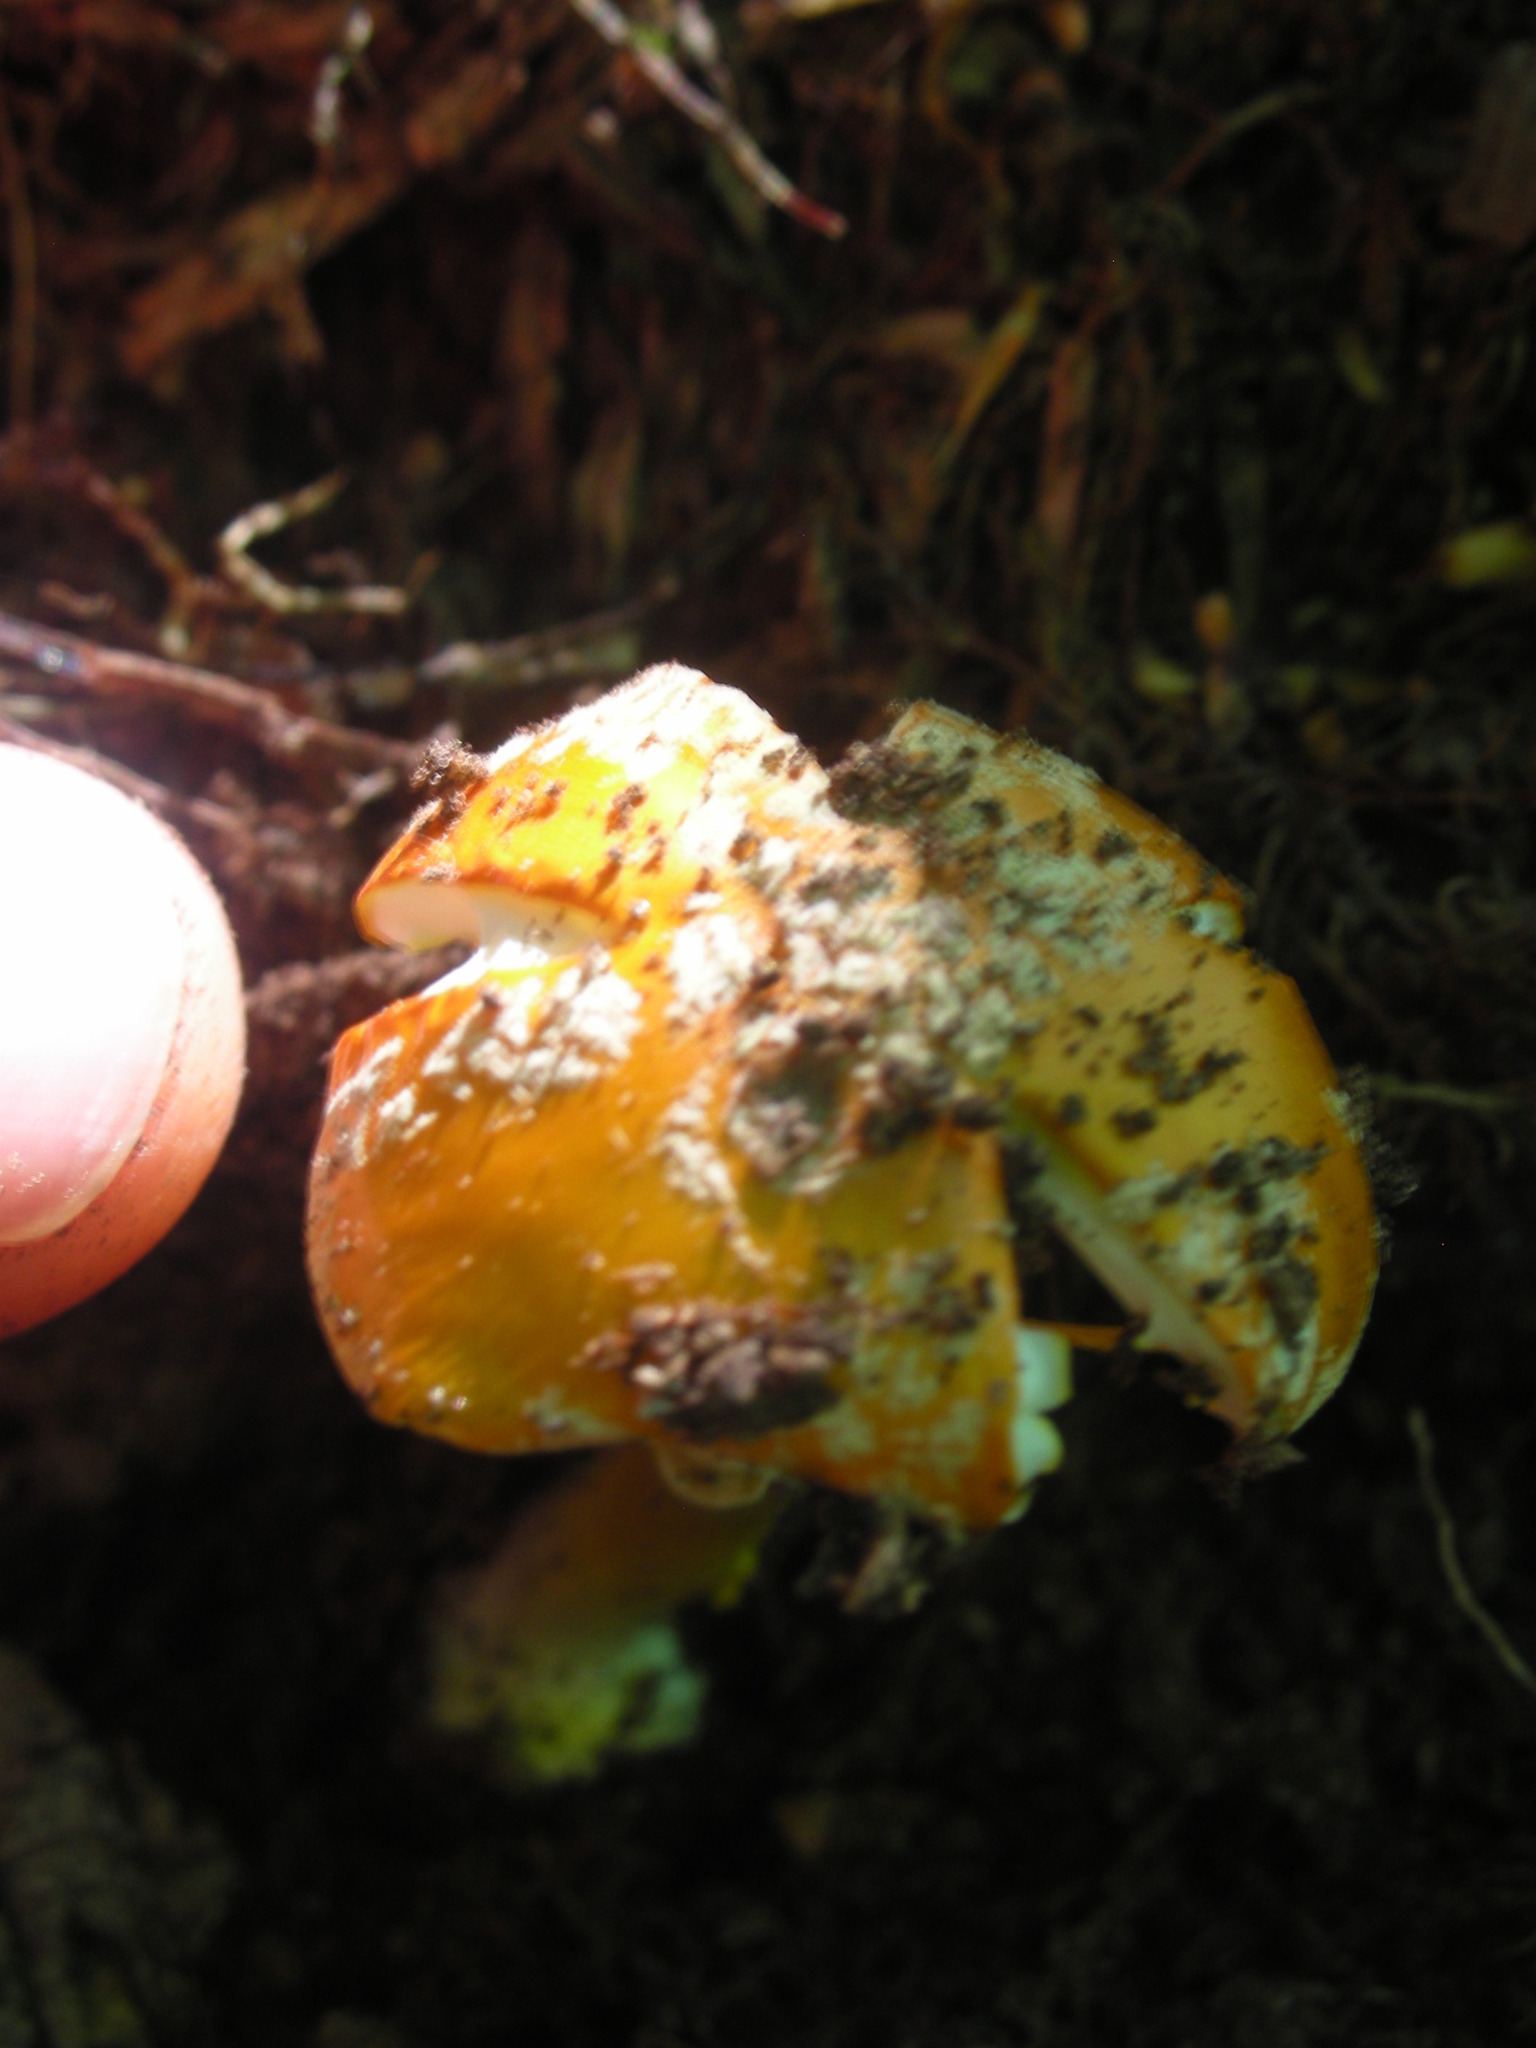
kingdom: Fungi
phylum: Basidiomycota
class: Agaricomycetes
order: Agaricales
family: Amanitaceae
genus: Amanita
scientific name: Amanita flavoconia
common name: Yellow patches
